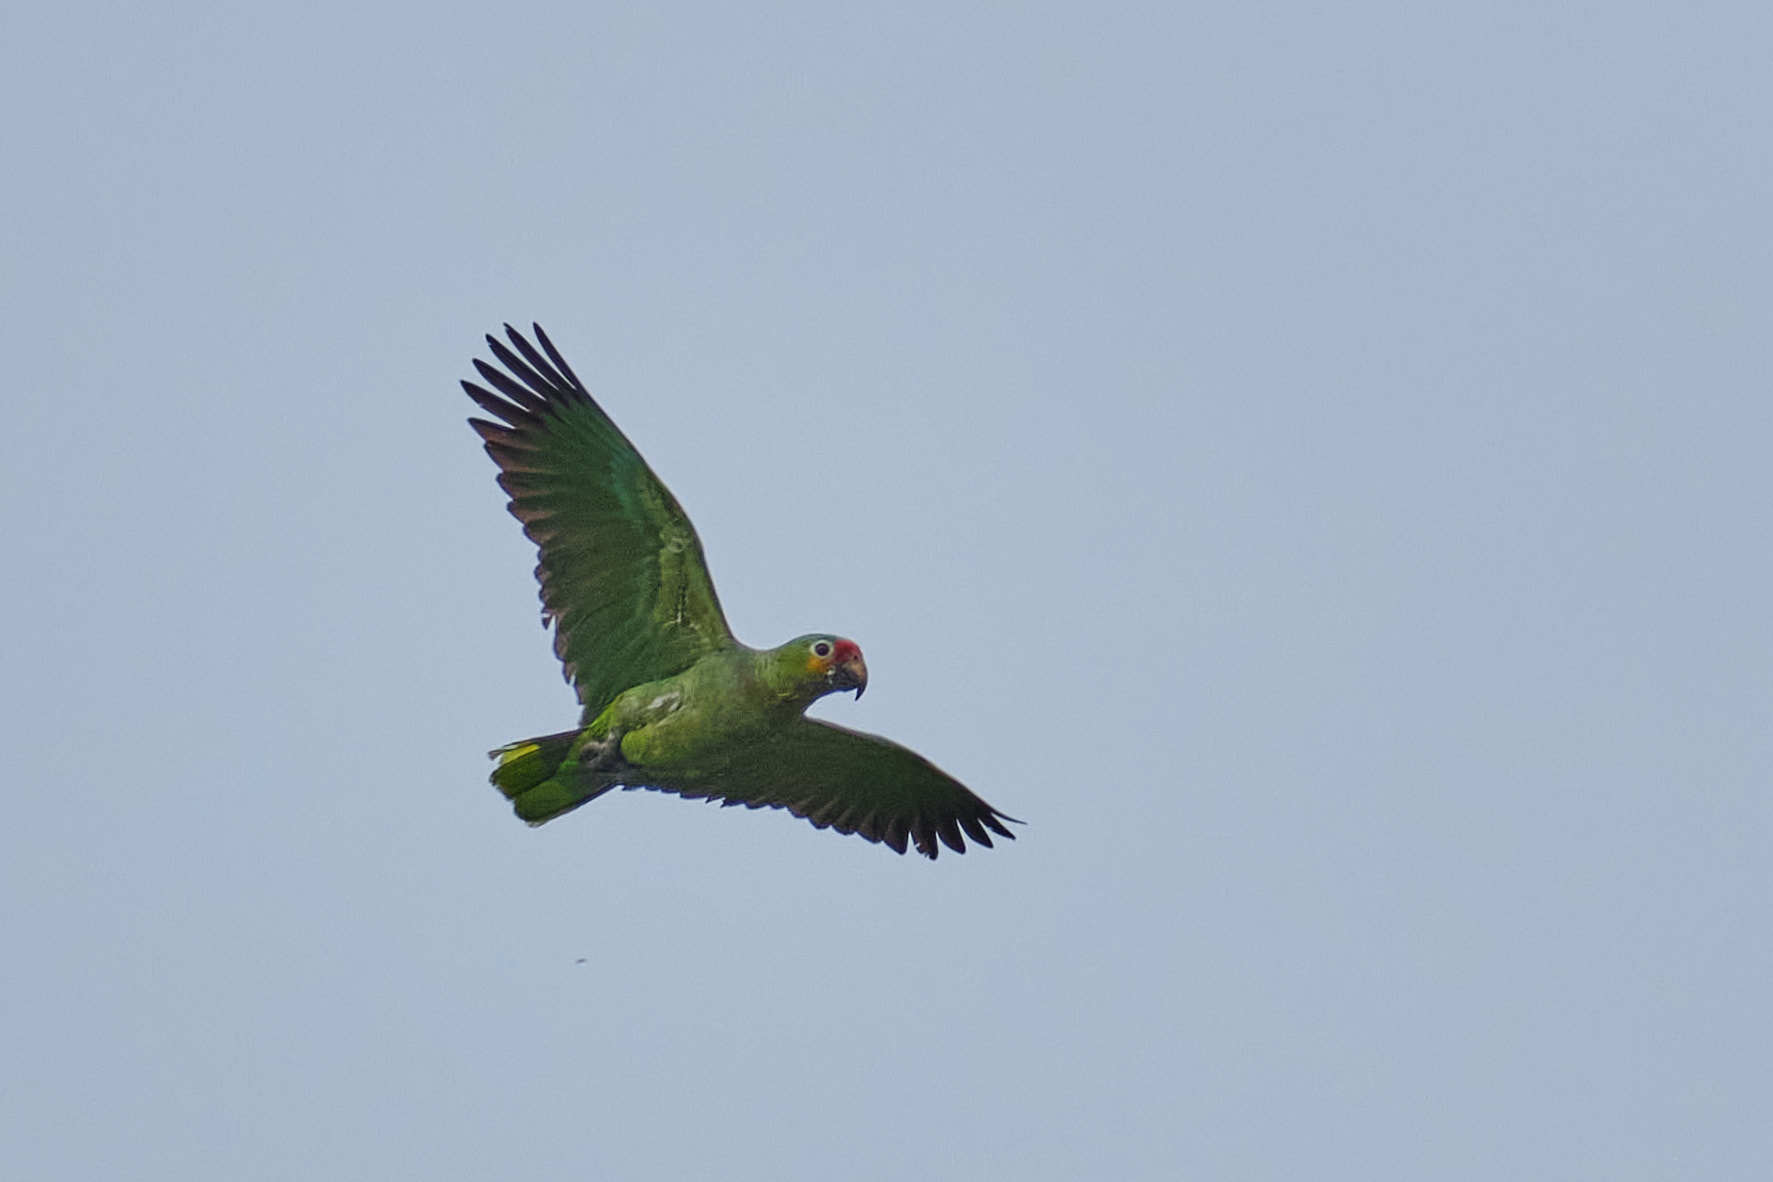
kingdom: Animalia
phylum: Chordata
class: Aves
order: Psittaciformes
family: Psittacidae
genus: Amazona
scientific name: Amazona autumnalis
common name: Red-lored amazon
